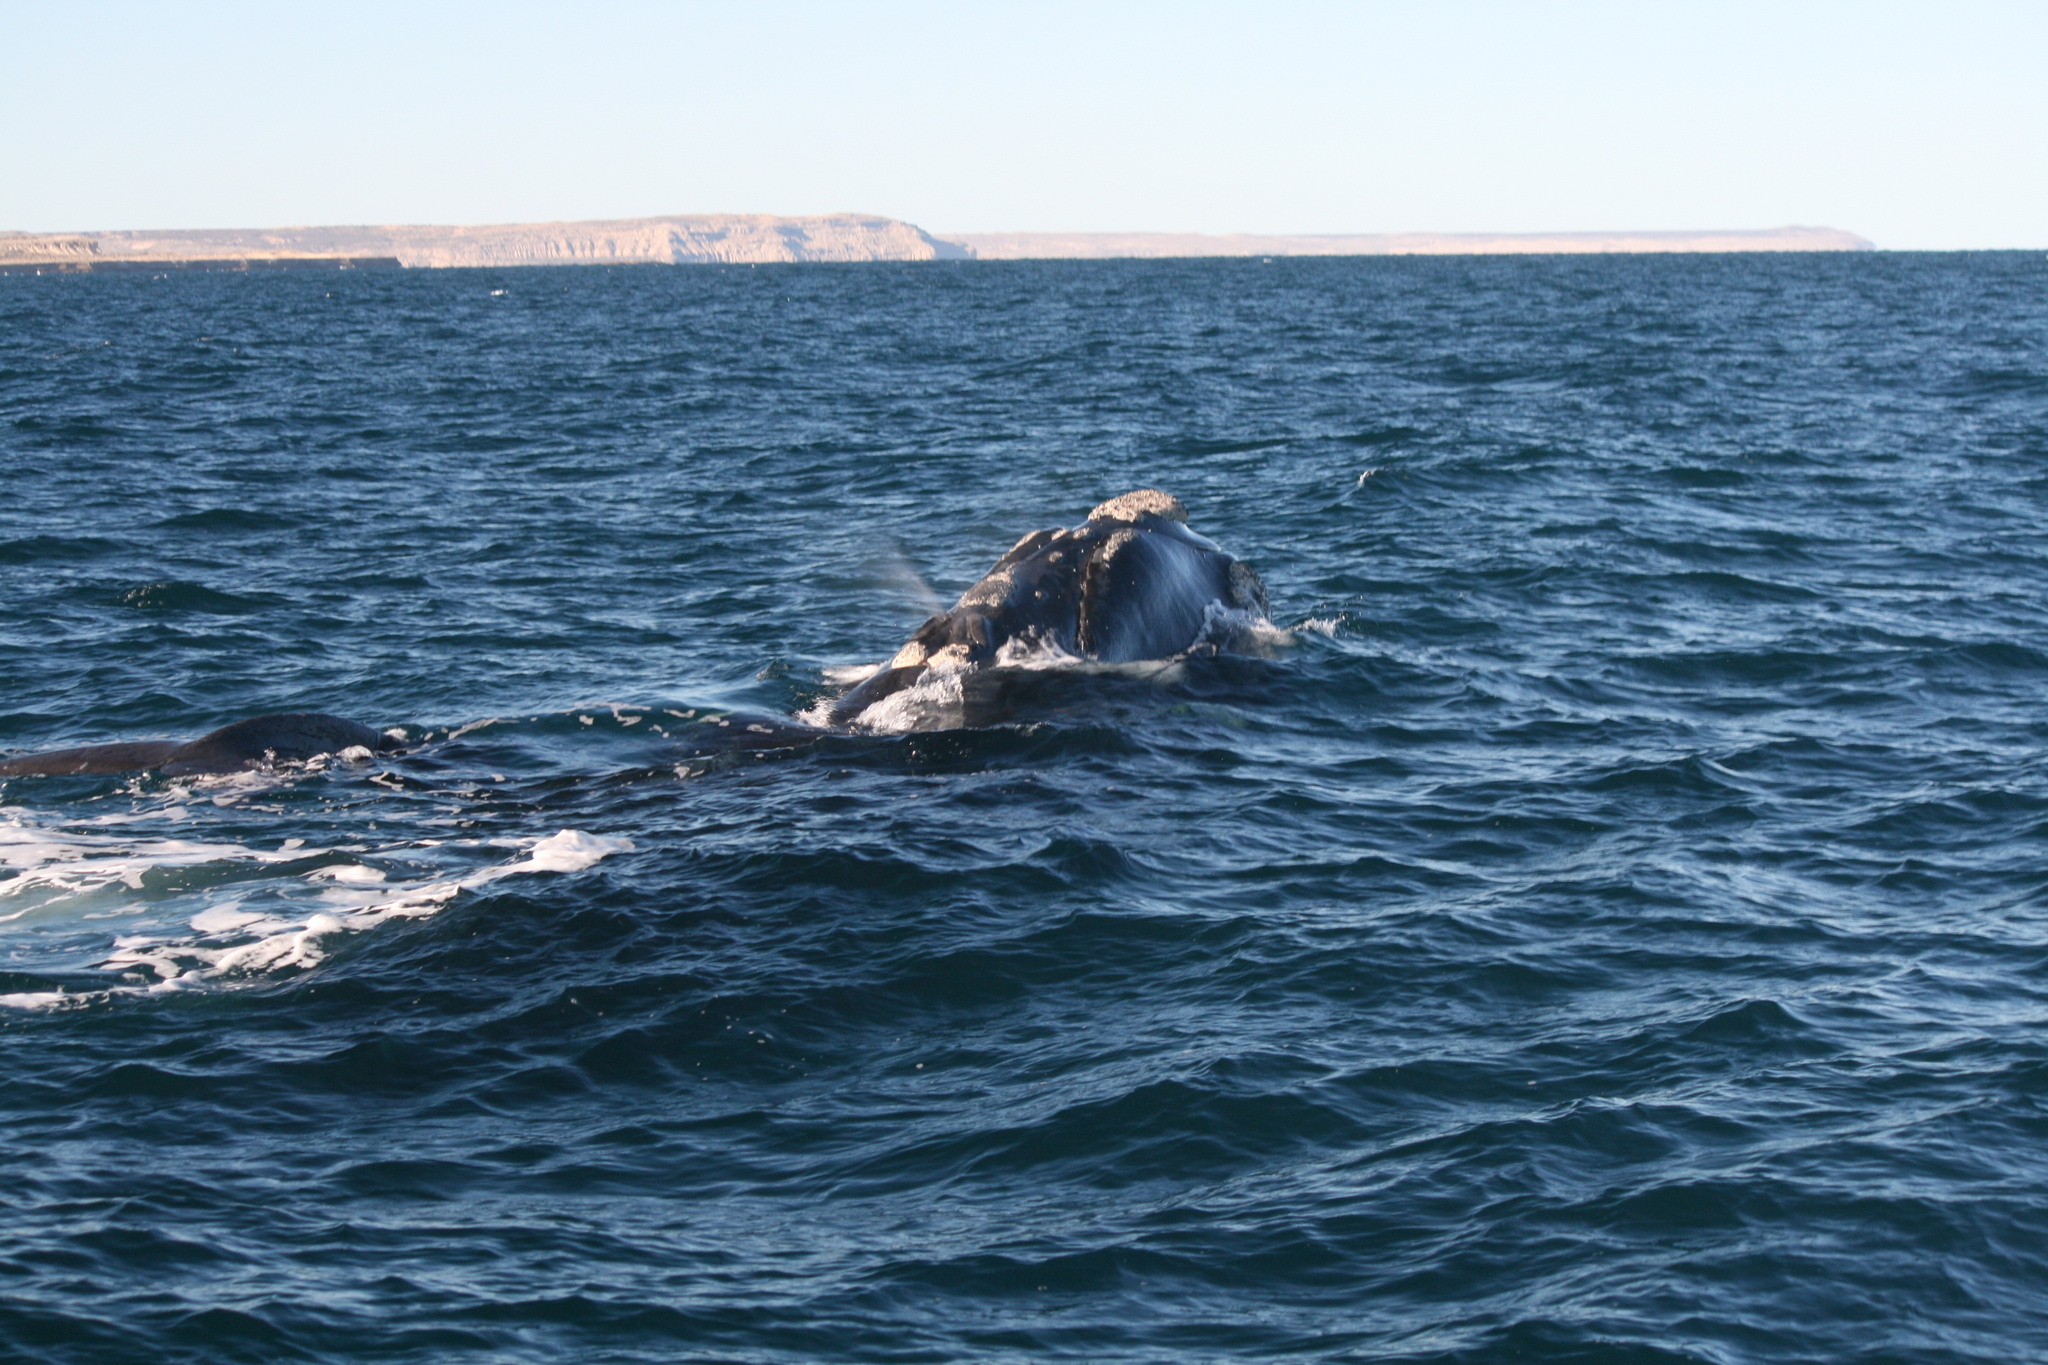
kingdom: Animalia
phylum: Chordata
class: Mammalia
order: Cetacea
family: Balaenidae
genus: Eubalaena
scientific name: Eubalaena australis
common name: Southern right whale
